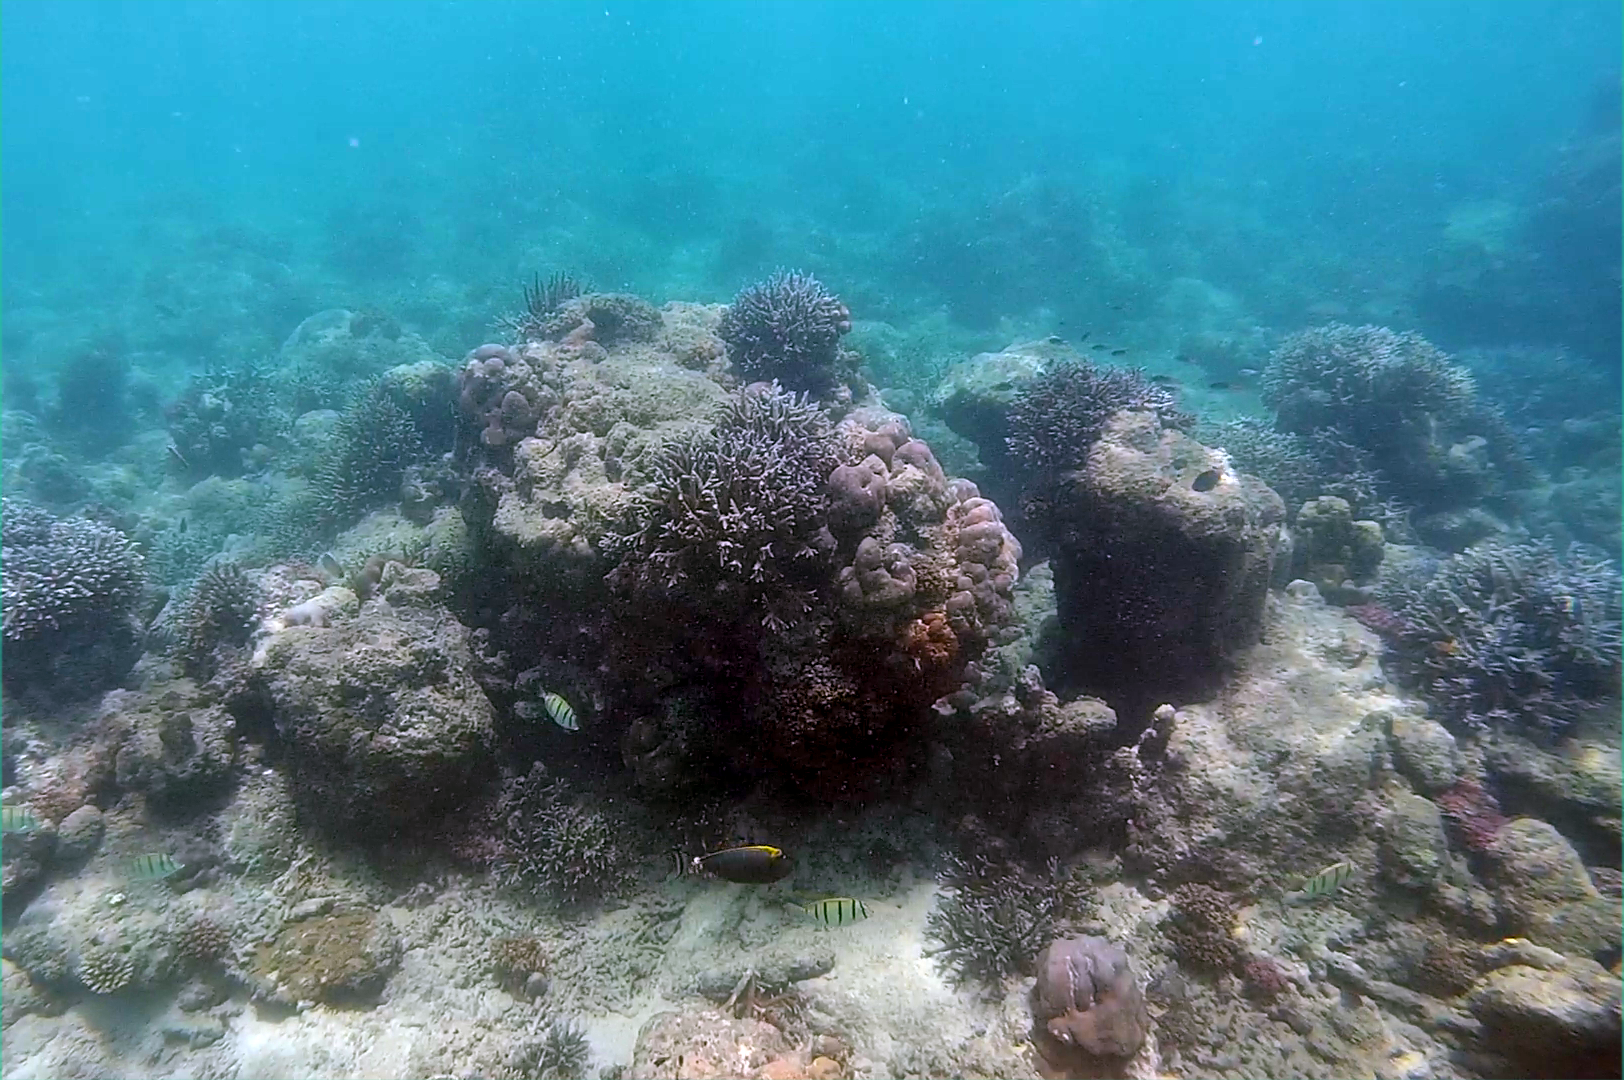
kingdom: Animalia
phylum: Chordata
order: Perciformes
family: Acanthuridae
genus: Naso
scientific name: Naso elegans
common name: Orangespine unicornfish
